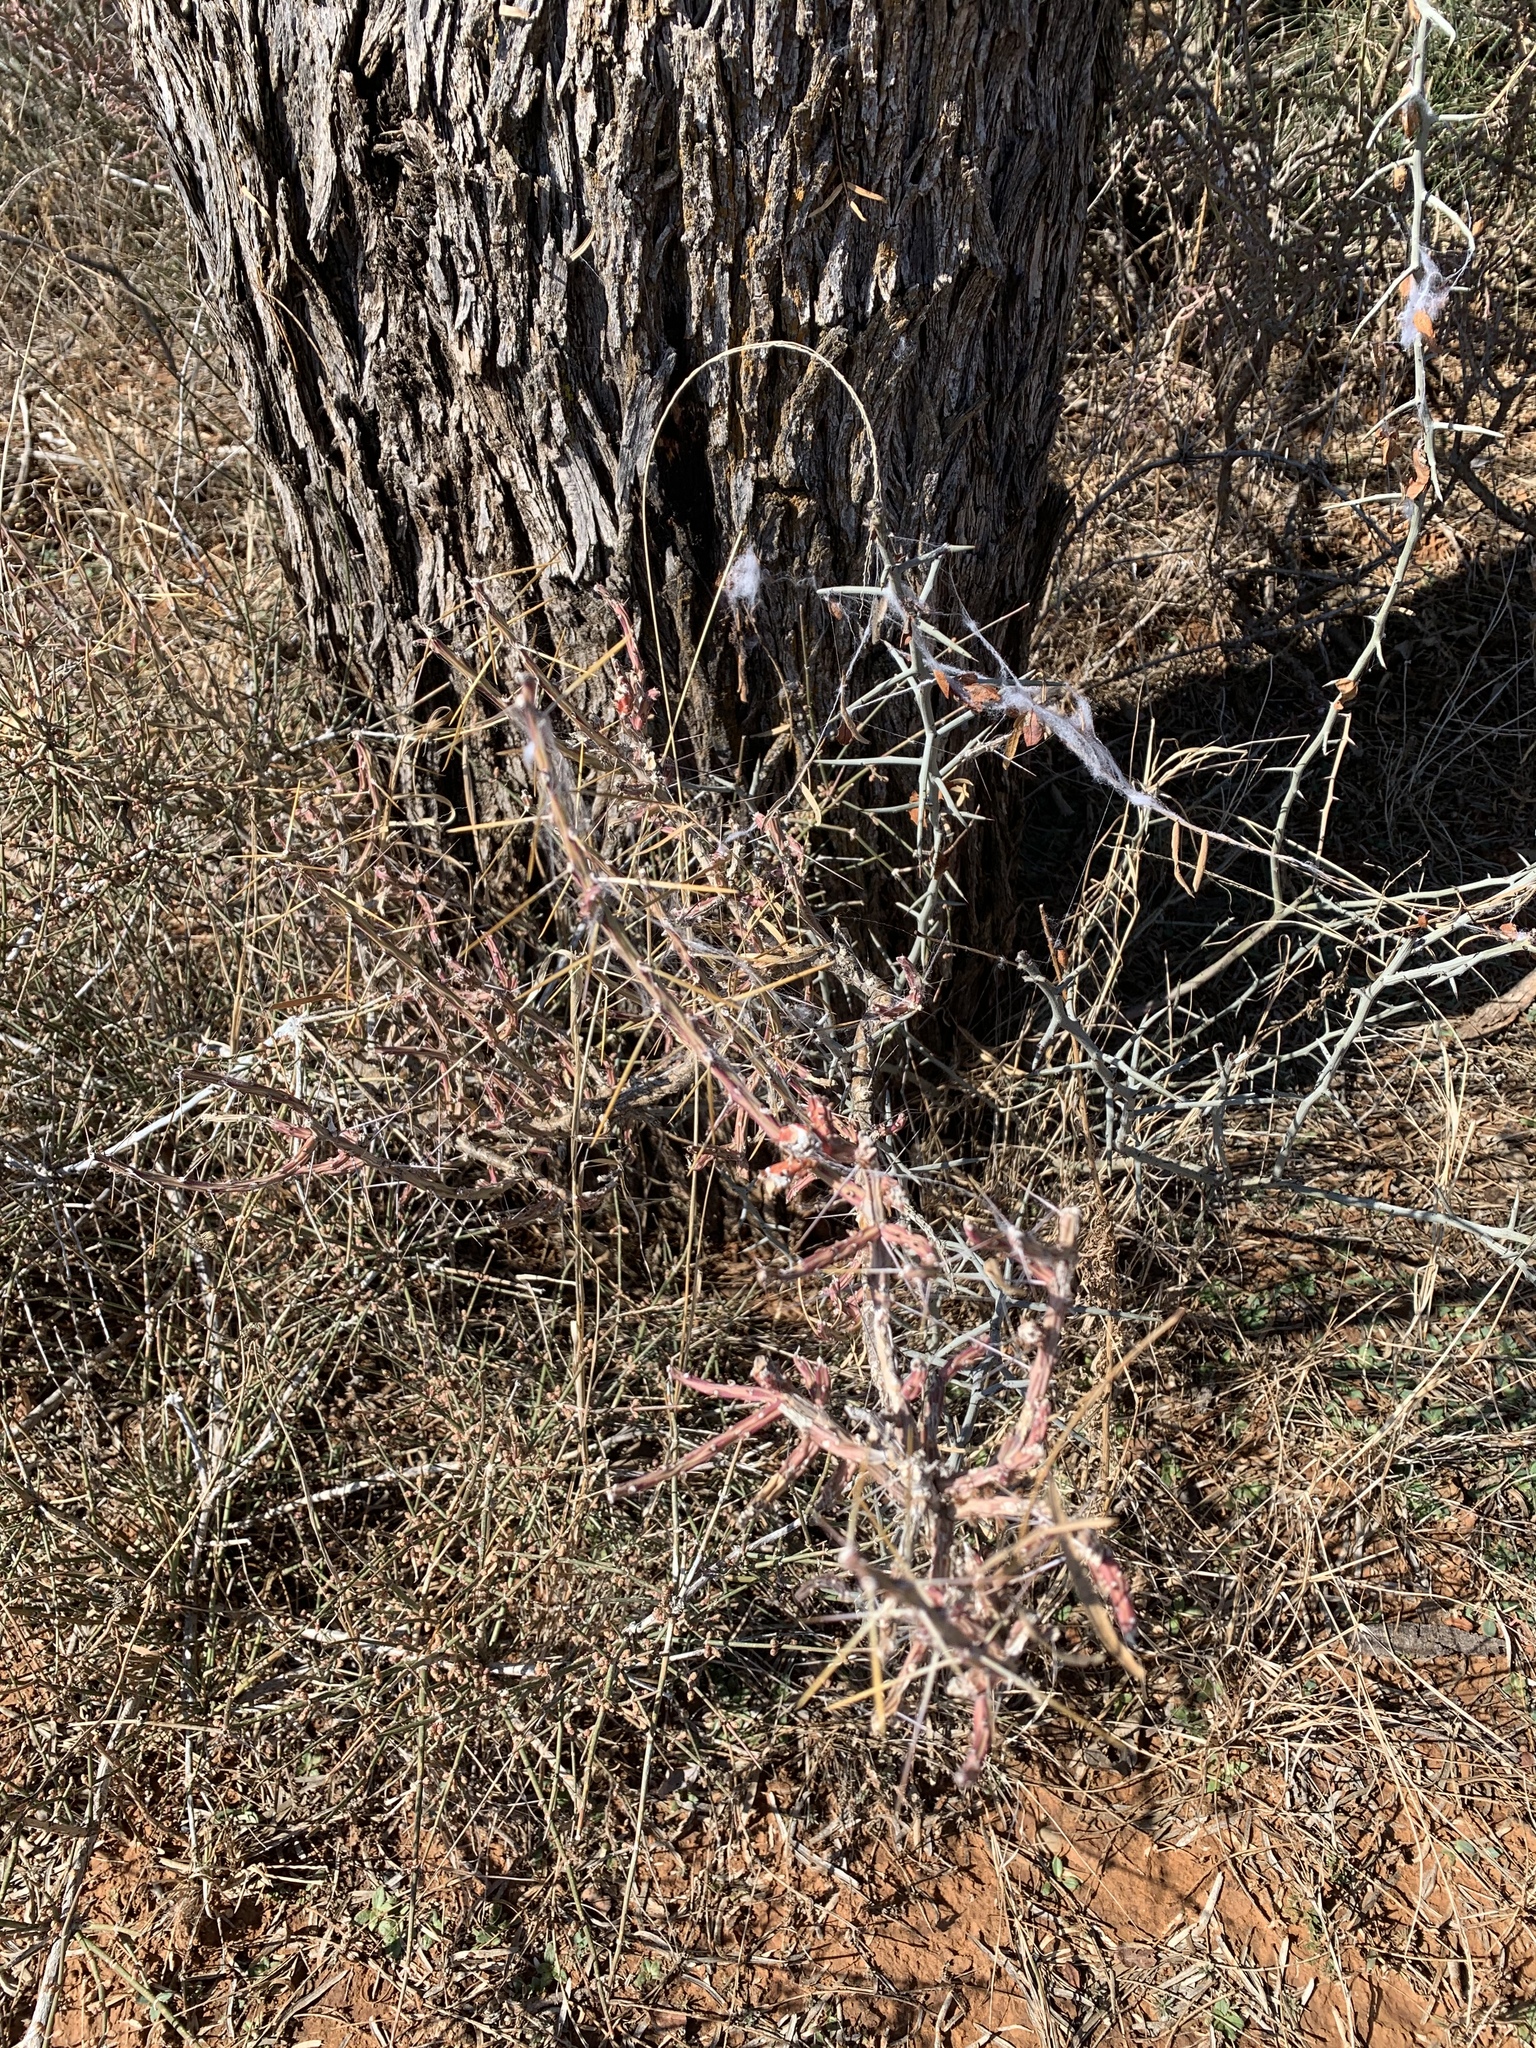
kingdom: Plantae
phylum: Tracheophyta
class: Magnoliopsida
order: Caryophyllales
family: Cactaceae
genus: Cylindropuntia
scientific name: Cylindropuntia leptocaulis
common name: Christmas cactus
